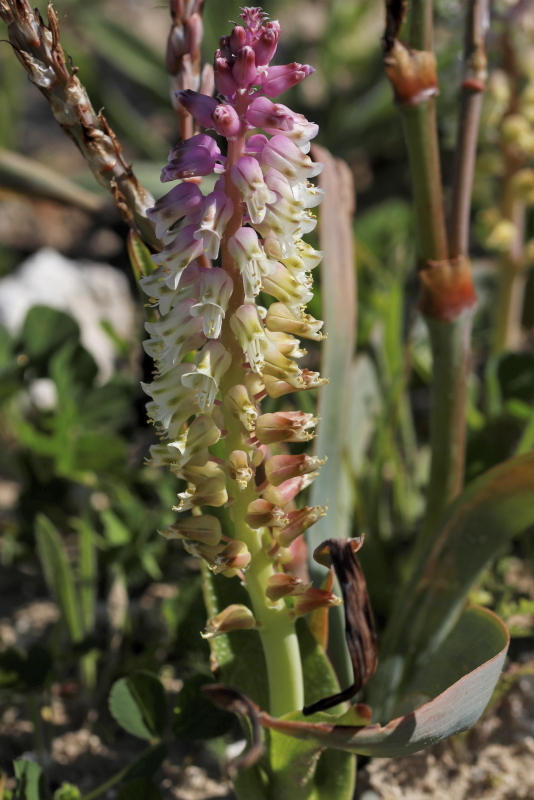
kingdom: Plantae
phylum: Tracheophyta
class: Liliopsida
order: Asparagales
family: Asparagaceae
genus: Lachenalia
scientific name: Lachenalia pallida
